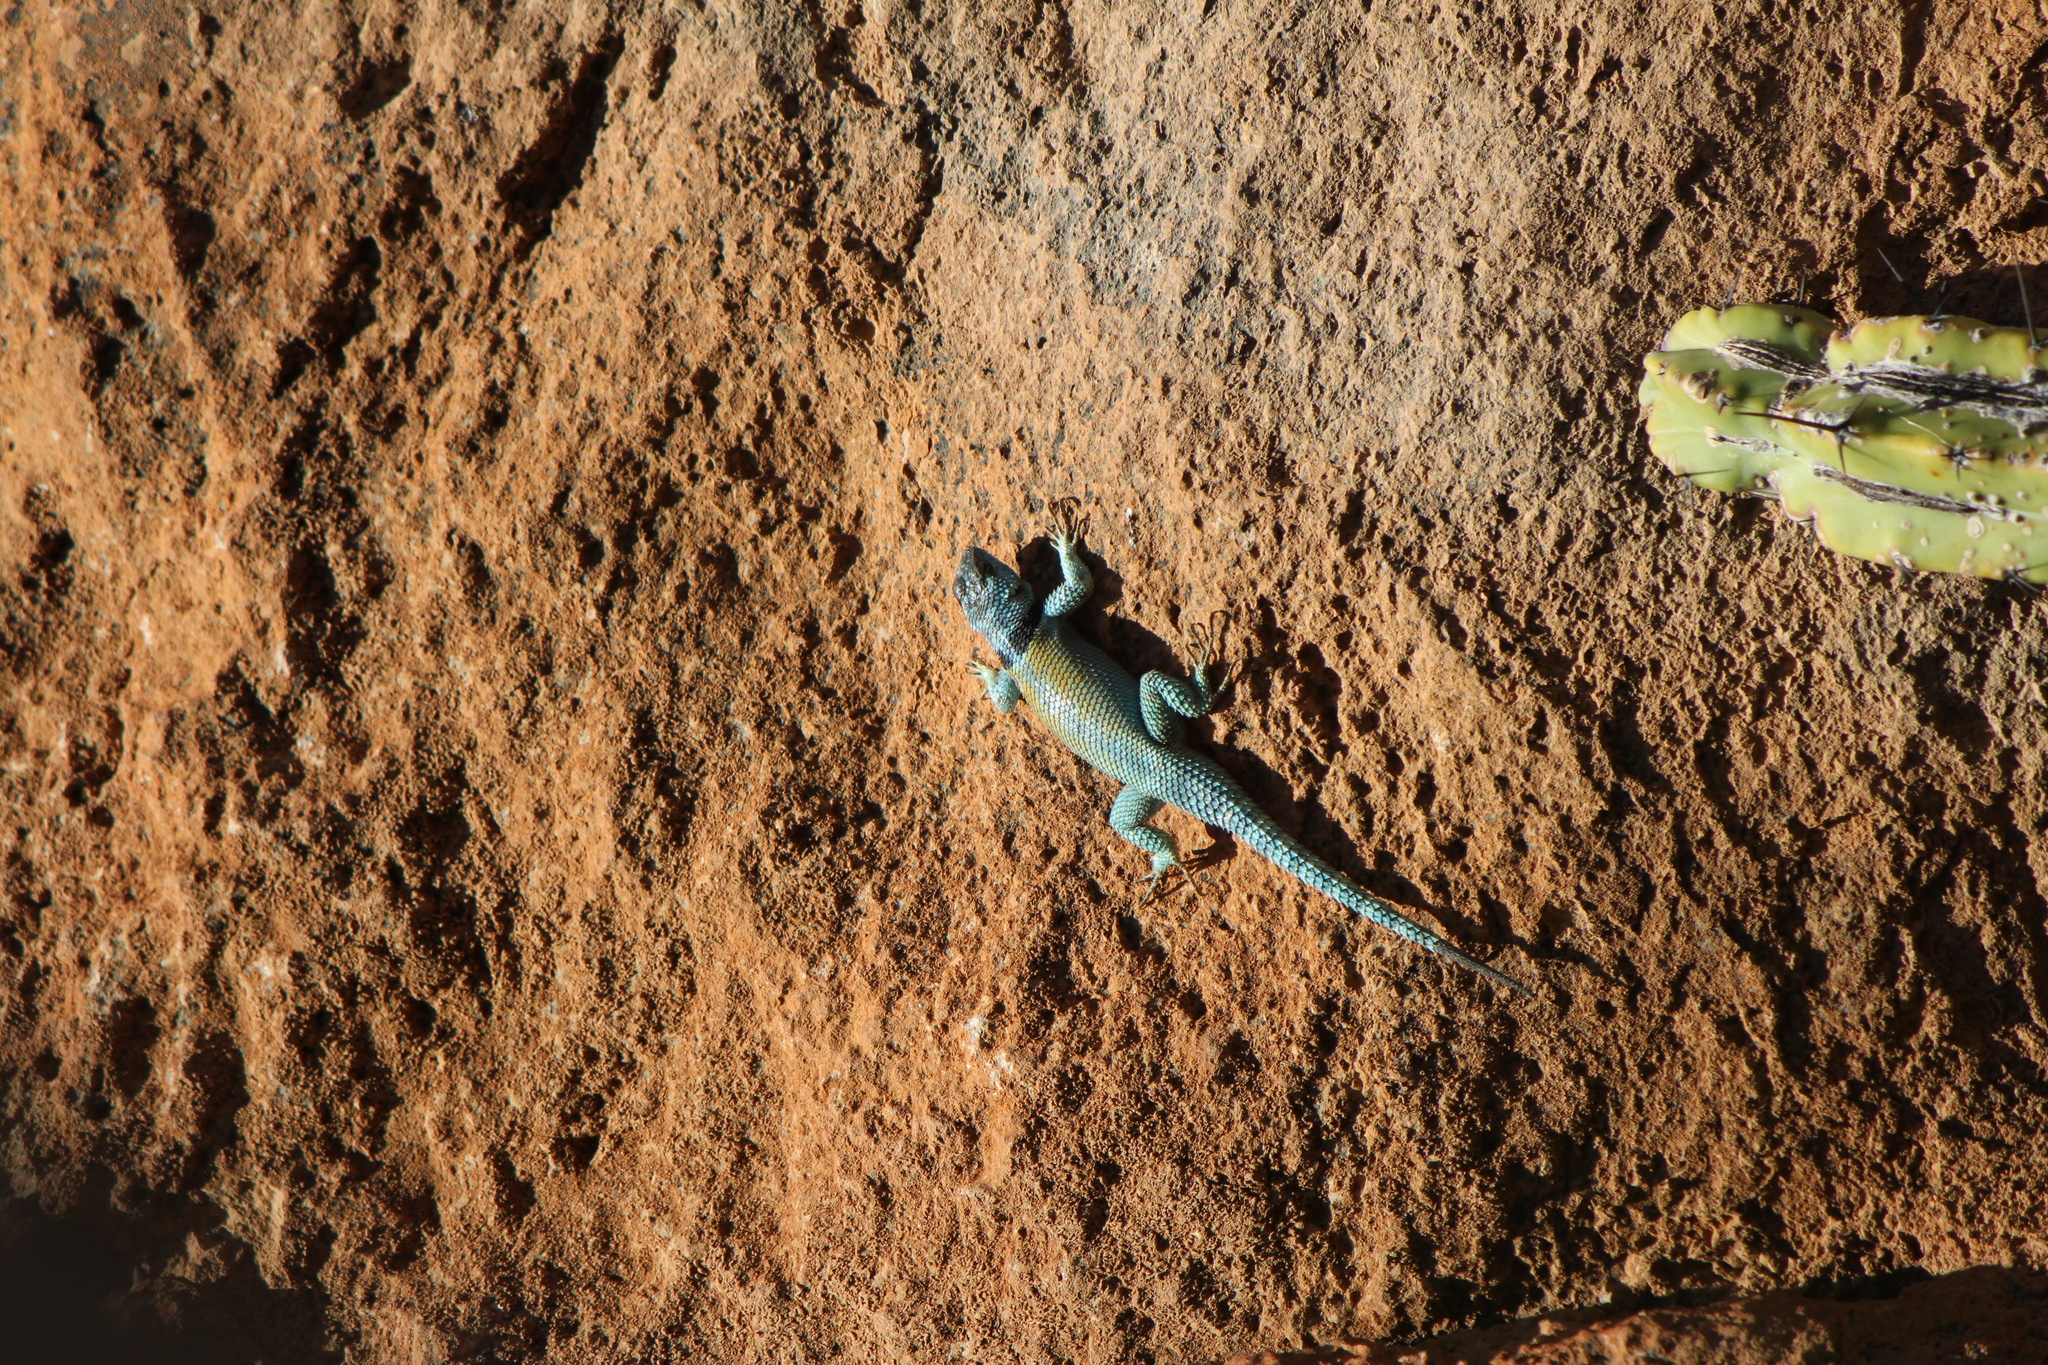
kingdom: Animalia
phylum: Chordata
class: Squamata
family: Phrynosomatidae
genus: Sceloporus
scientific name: Sceloporus minor
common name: Minor lizard
